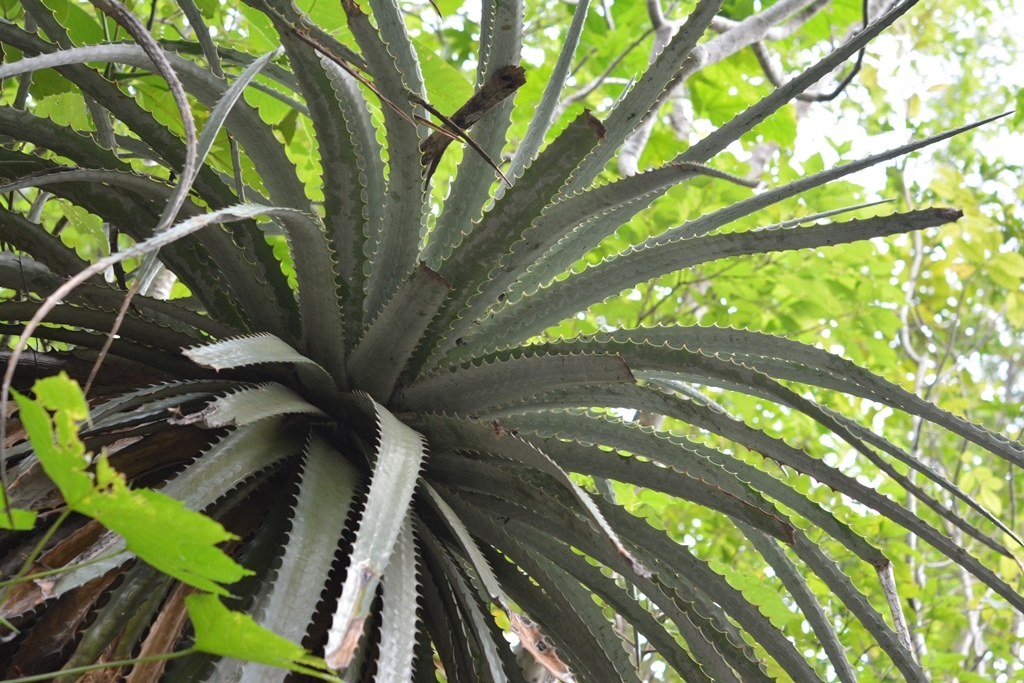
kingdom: Plantae
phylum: Tracheophyta
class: Liliopsida
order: Poales
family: Bromeliaceae
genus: Hechtia
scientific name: Hechtia glomerata
